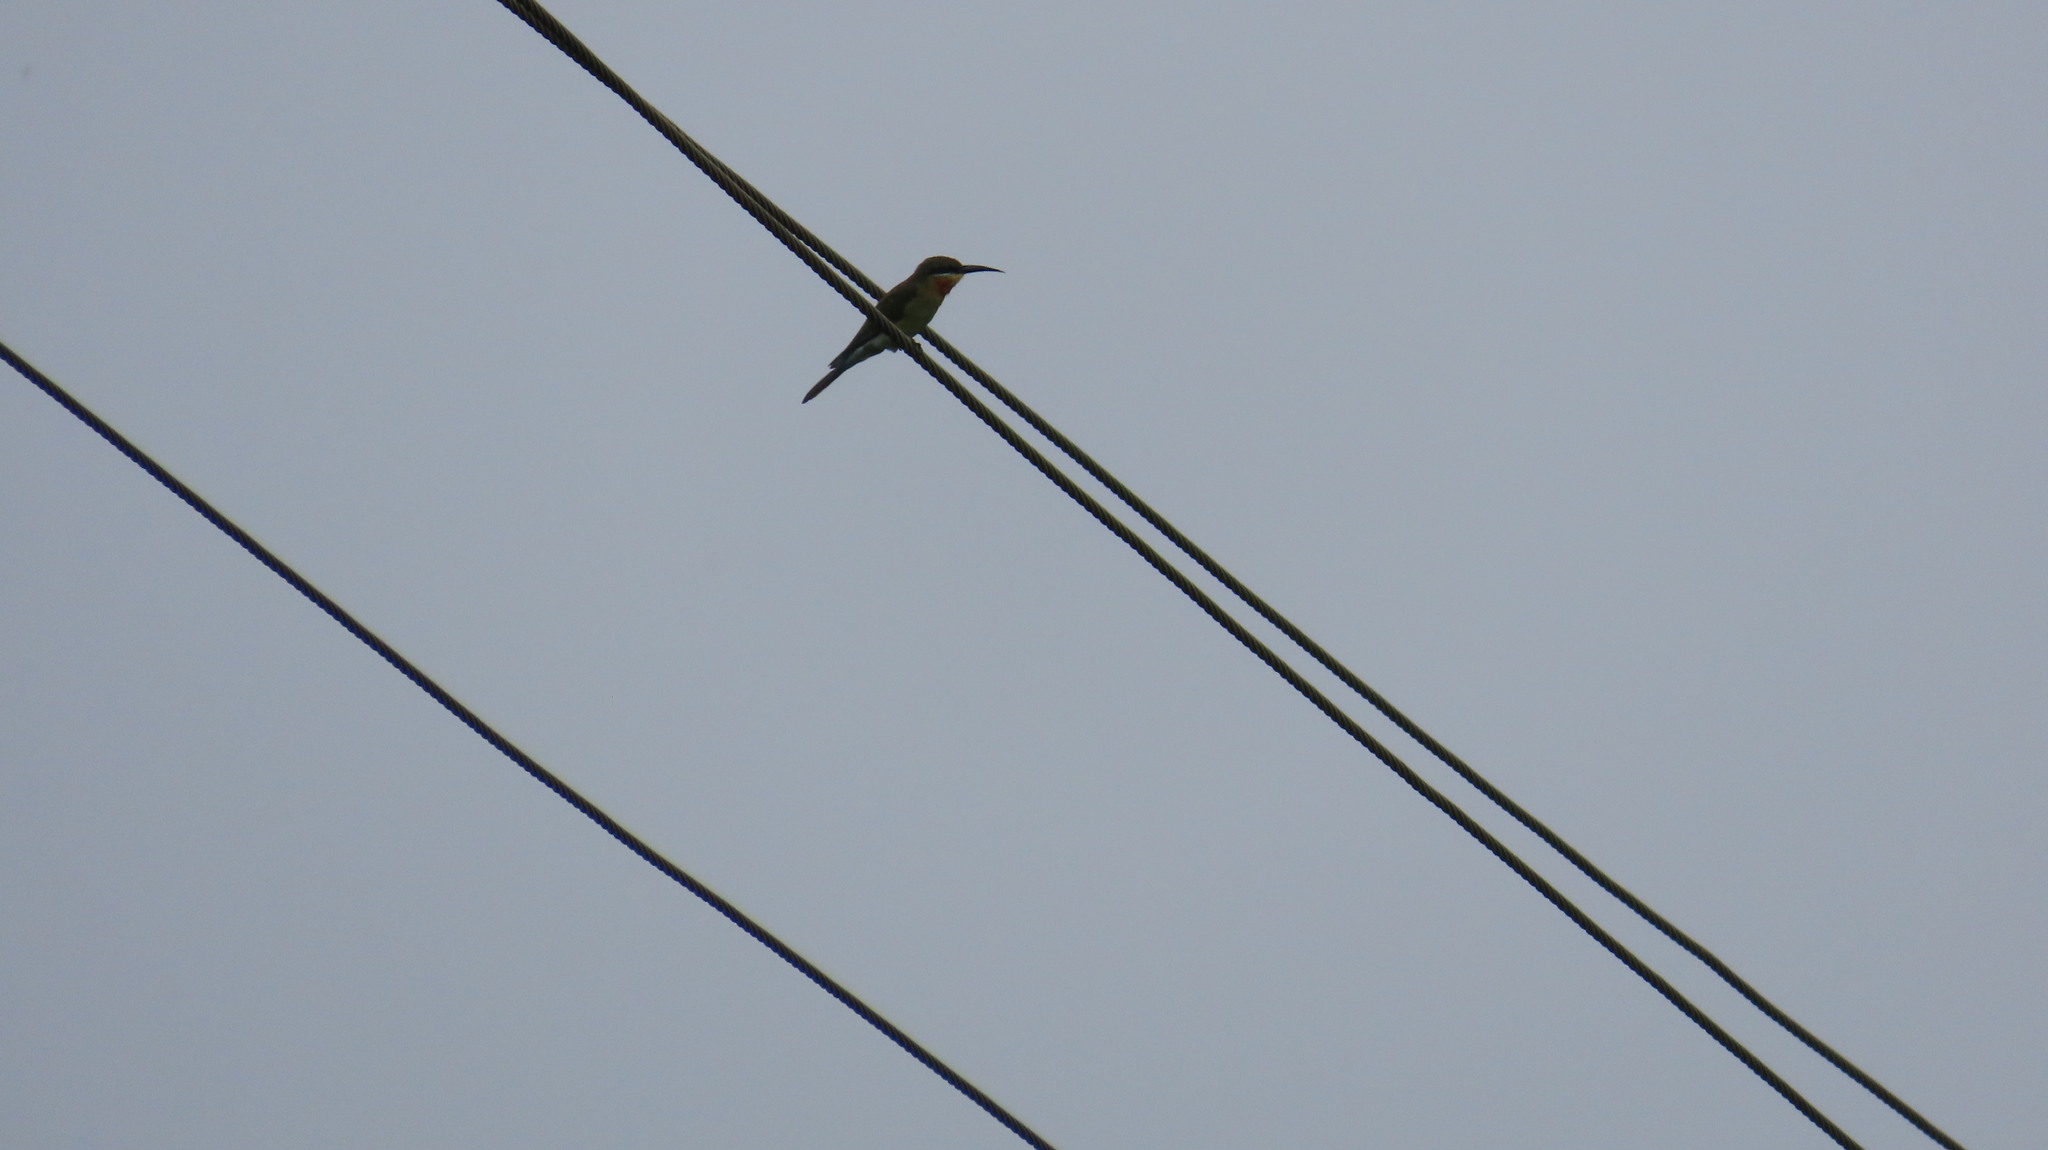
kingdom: Animalia
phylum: Chordata
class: Aves
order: Coraciiformes
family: Meropidae
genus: Merops
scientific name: Merops philippinus
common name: Blue-tailed bee-eater
